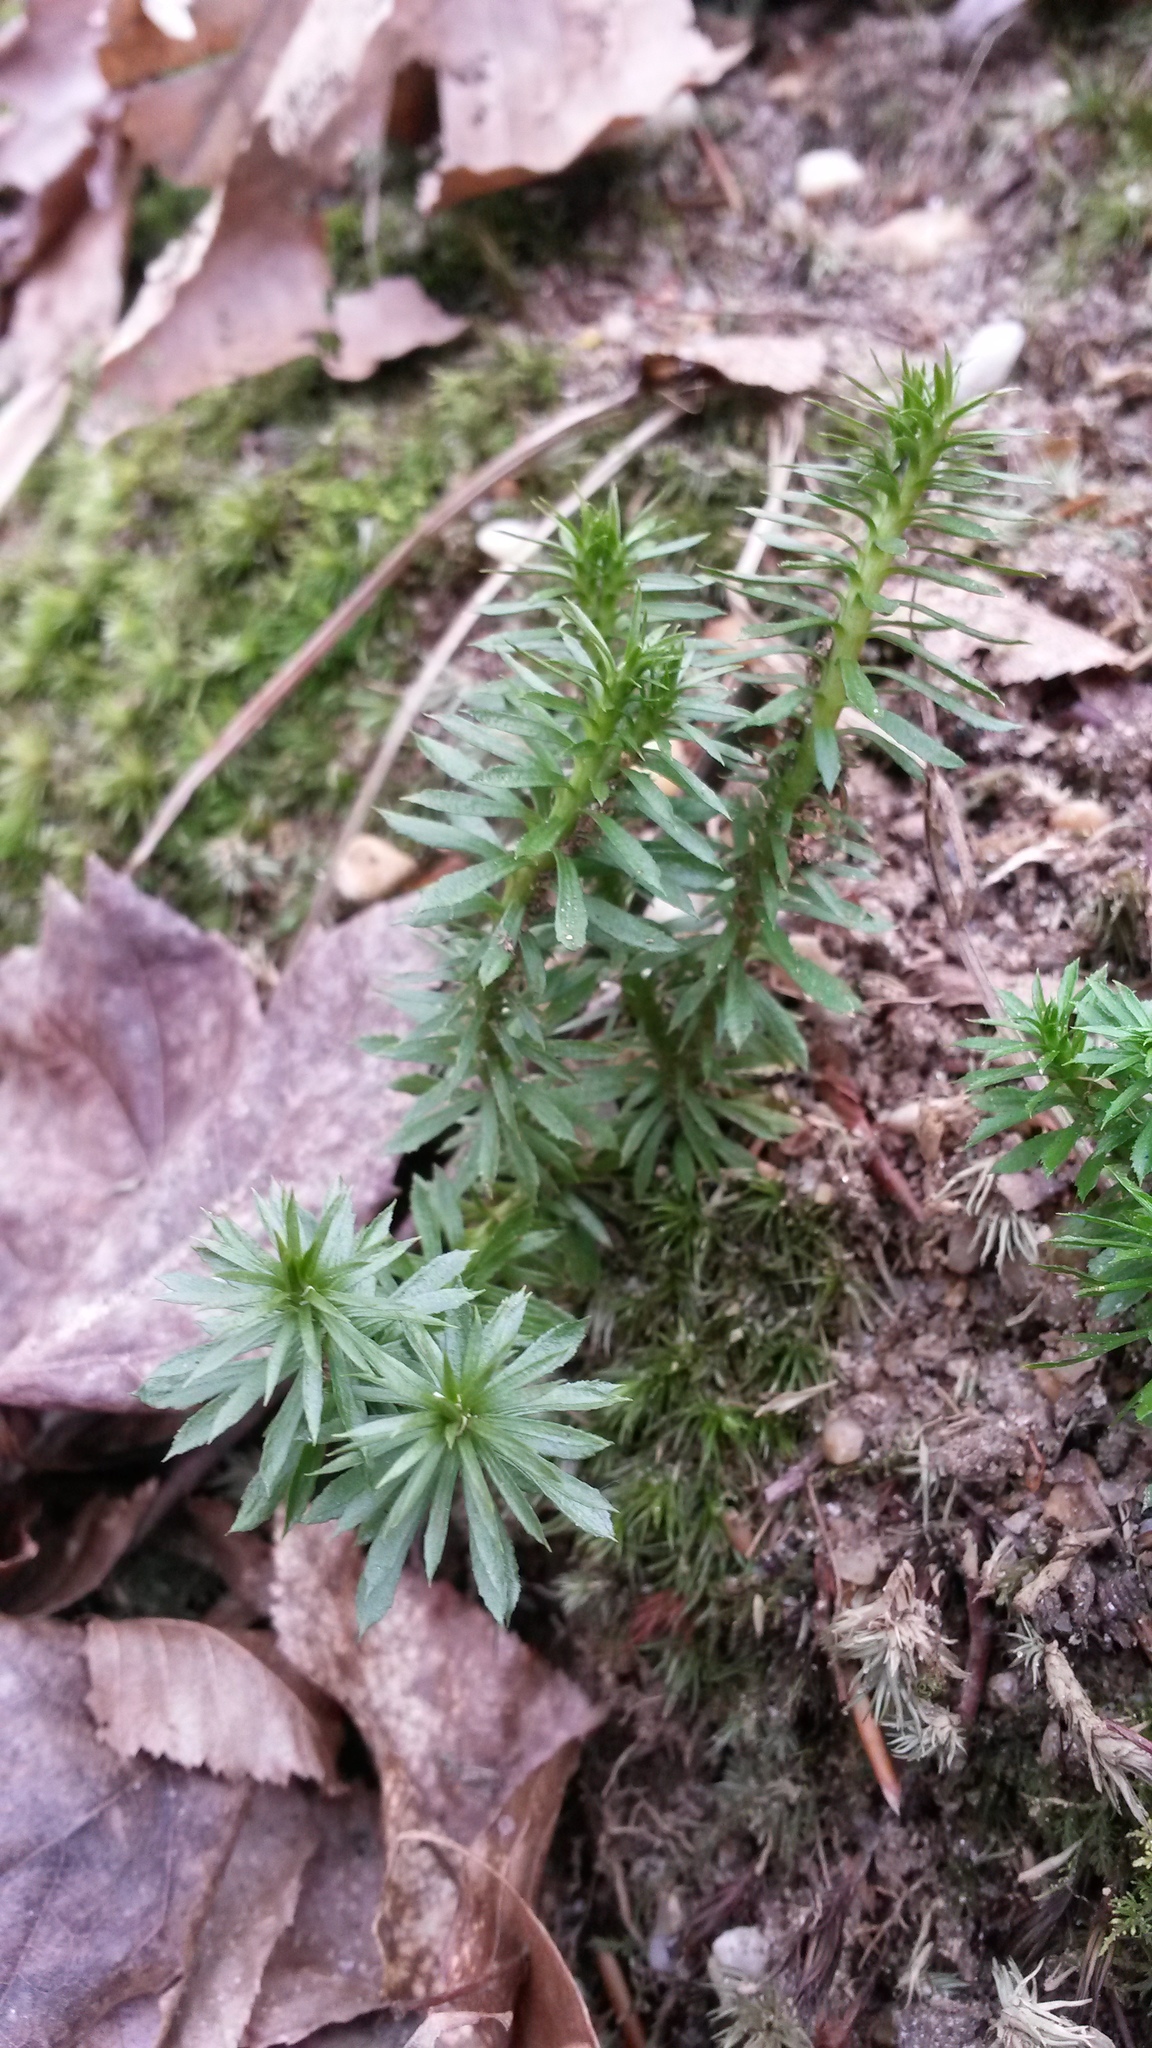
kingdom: Plantae
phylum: Tracheophyta
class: Lycopodiopsida
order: Lycopodiales
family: Lycopodiaceae
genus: Huperzia
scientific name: Huperzia lucidula
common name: Shining clubmoss
